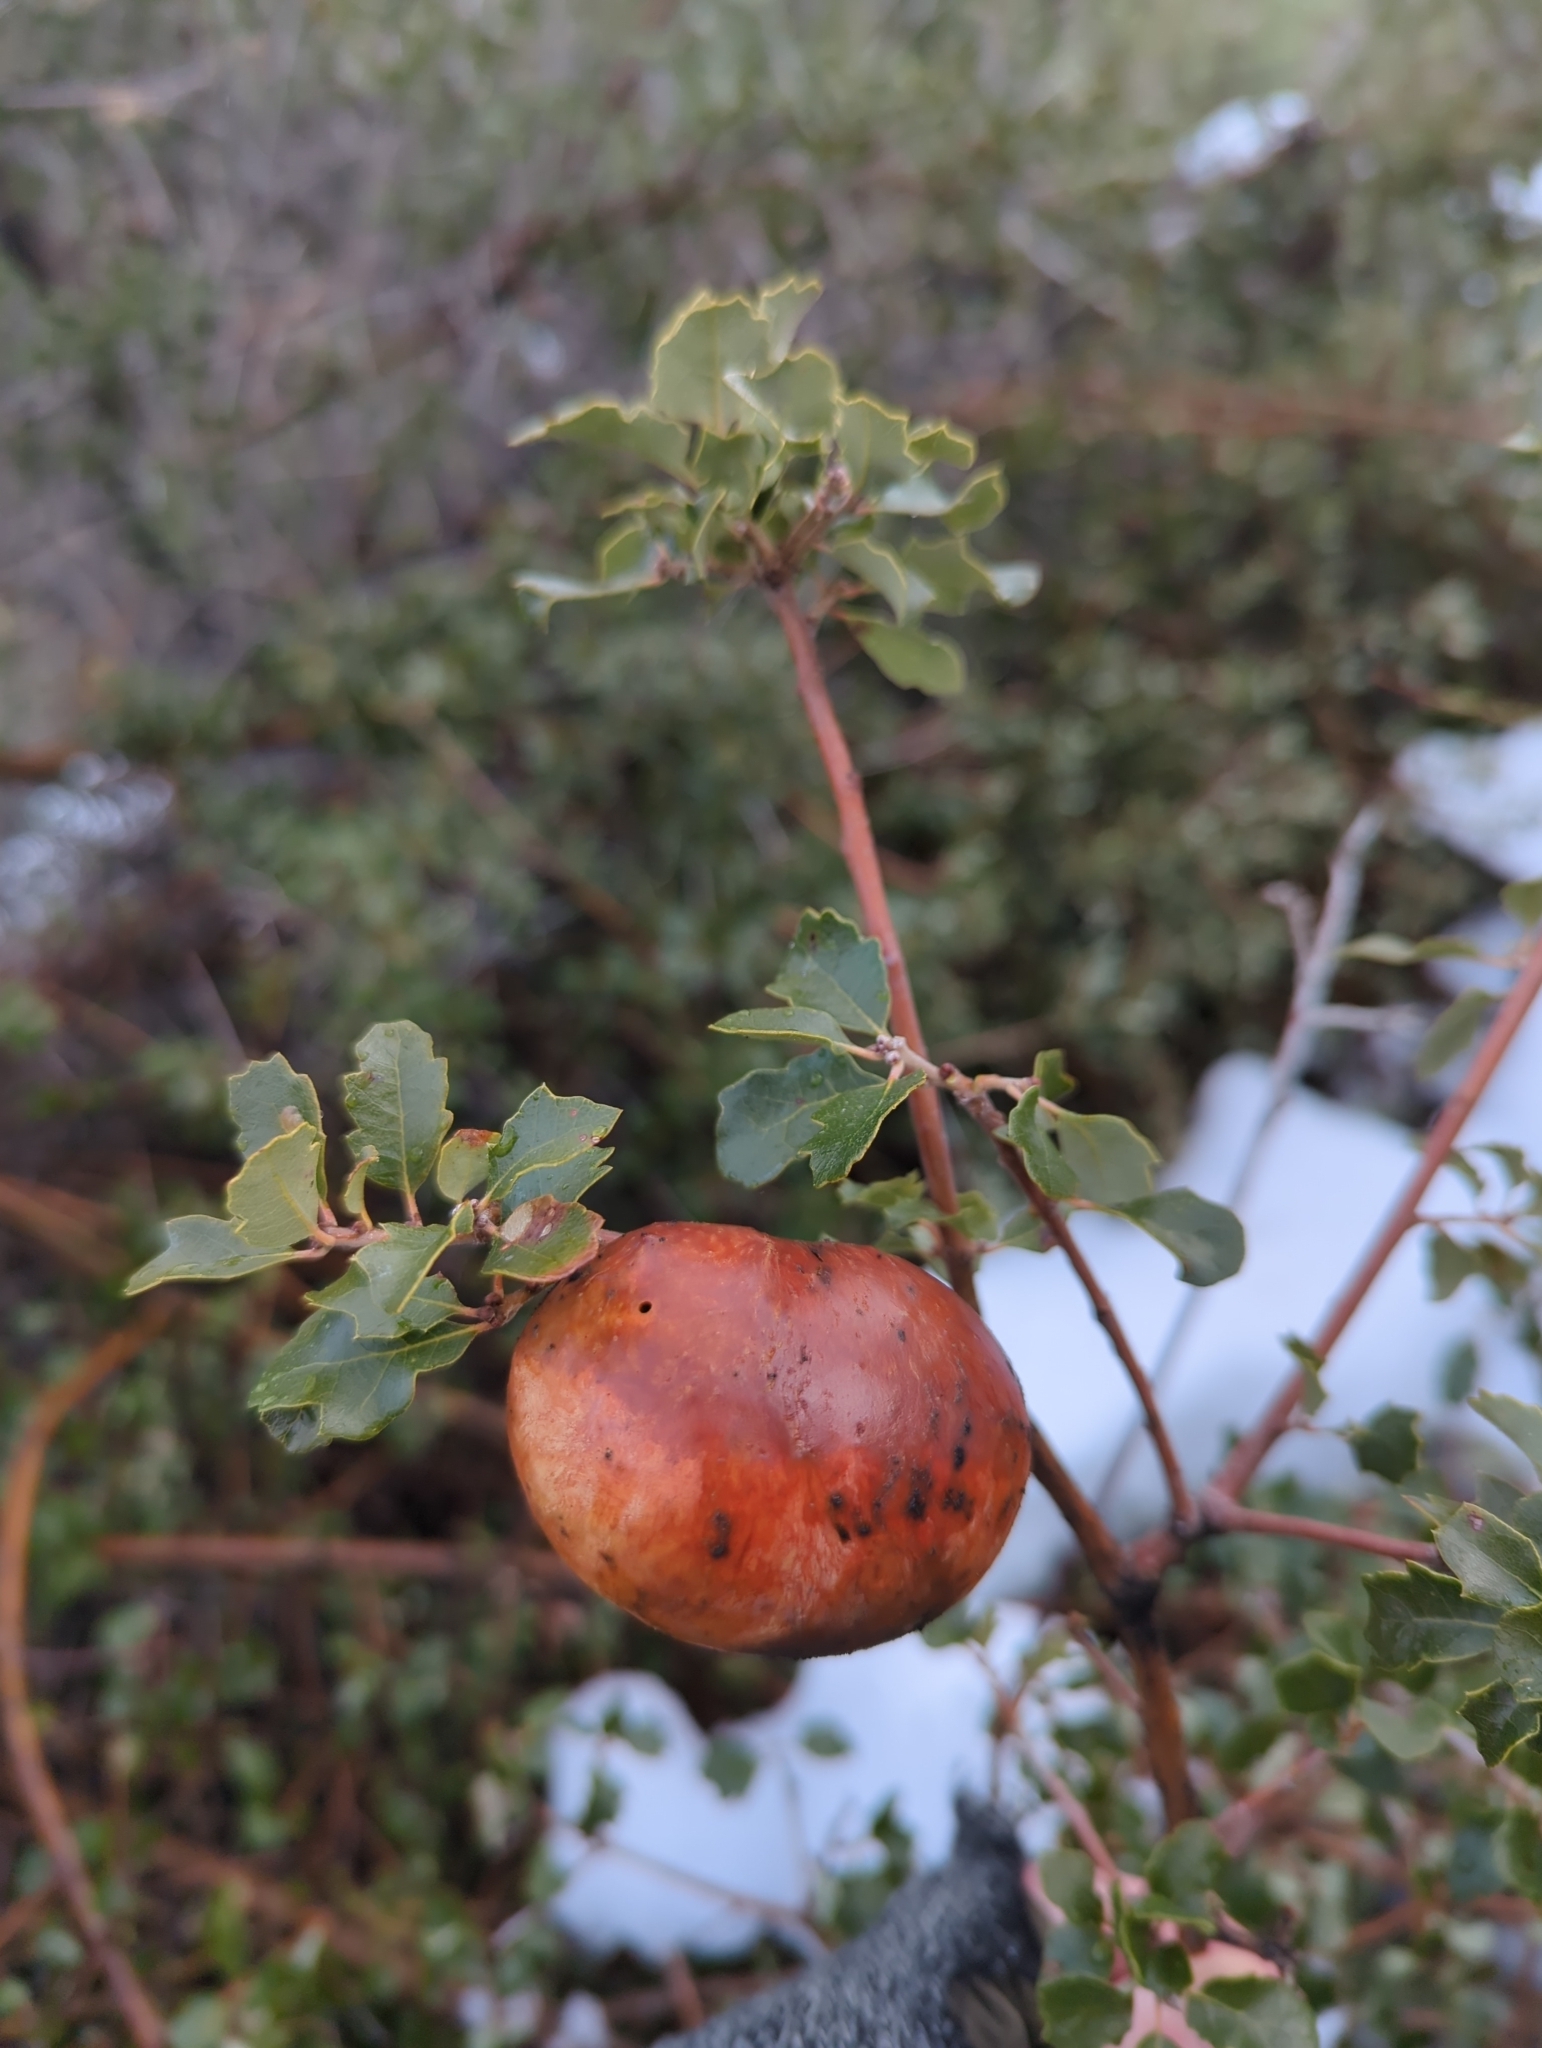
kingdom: Animalia
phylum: Arthropoda
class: Insecta
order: Hymenoptera
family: Cynipidae
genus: Andricus
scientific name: Andricus quercuscalifornicus
